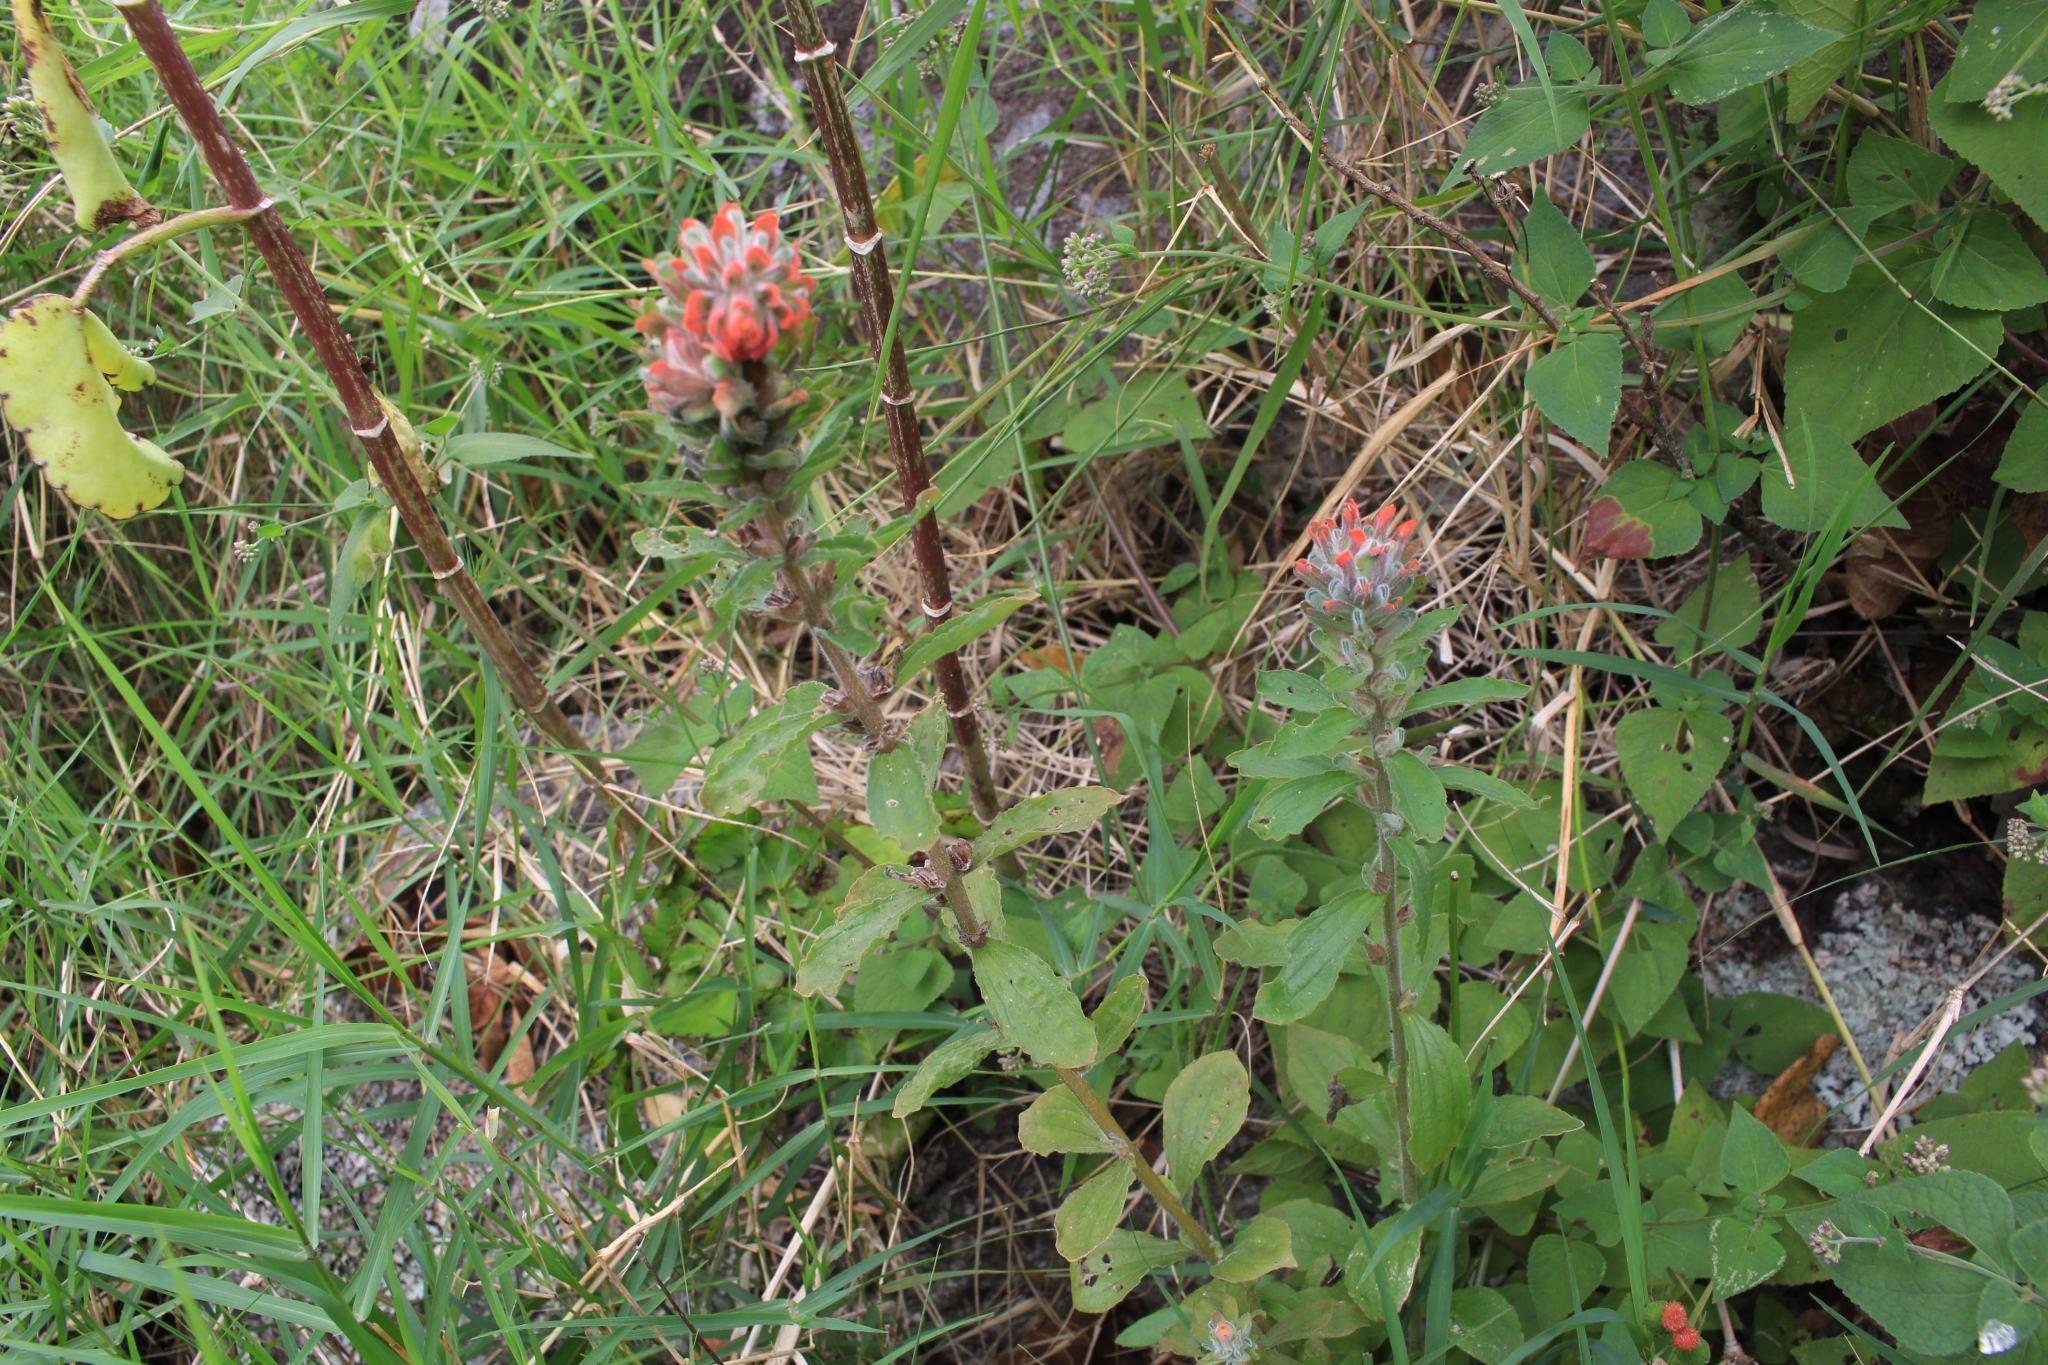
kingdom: Plantae
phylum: Tracheophyta
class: Magnoliopsida
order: Lamiales
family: Orobanchaceae
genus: Castilleja
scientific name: Castilleja arvensis
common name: Indian paintbrush
